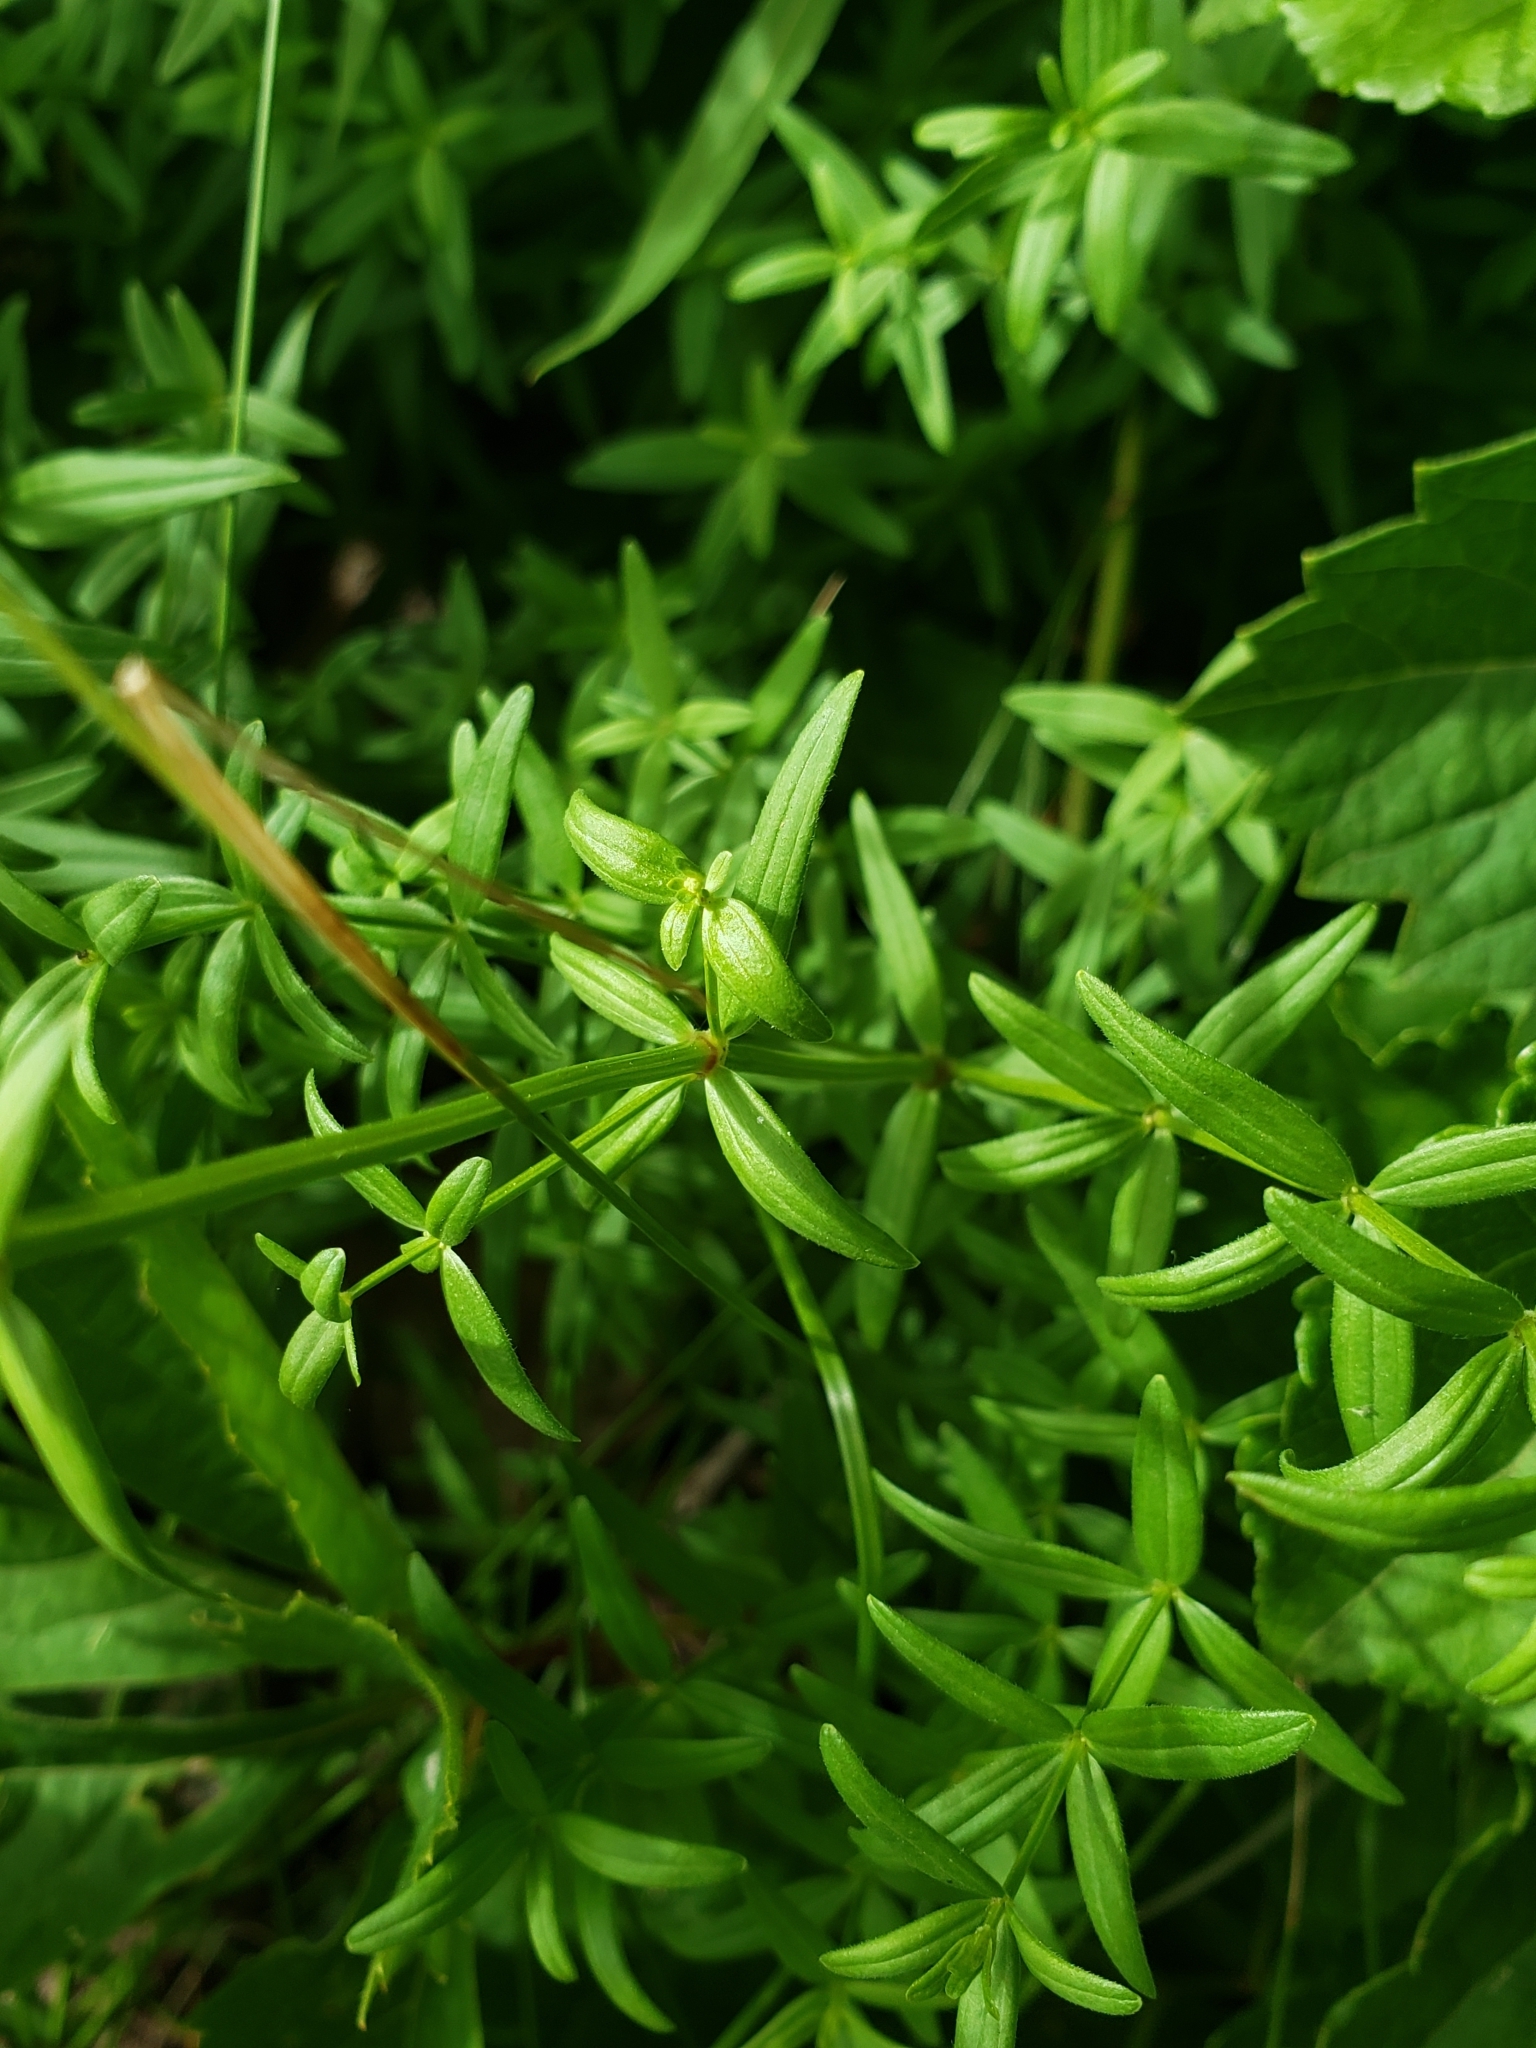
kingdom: Plantae
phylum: Tracheophyta
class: Magnoliopsida
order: Gentianales
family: Rubiaceae
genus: Galium
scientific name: Galium boreale
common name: Northern bedstraw
